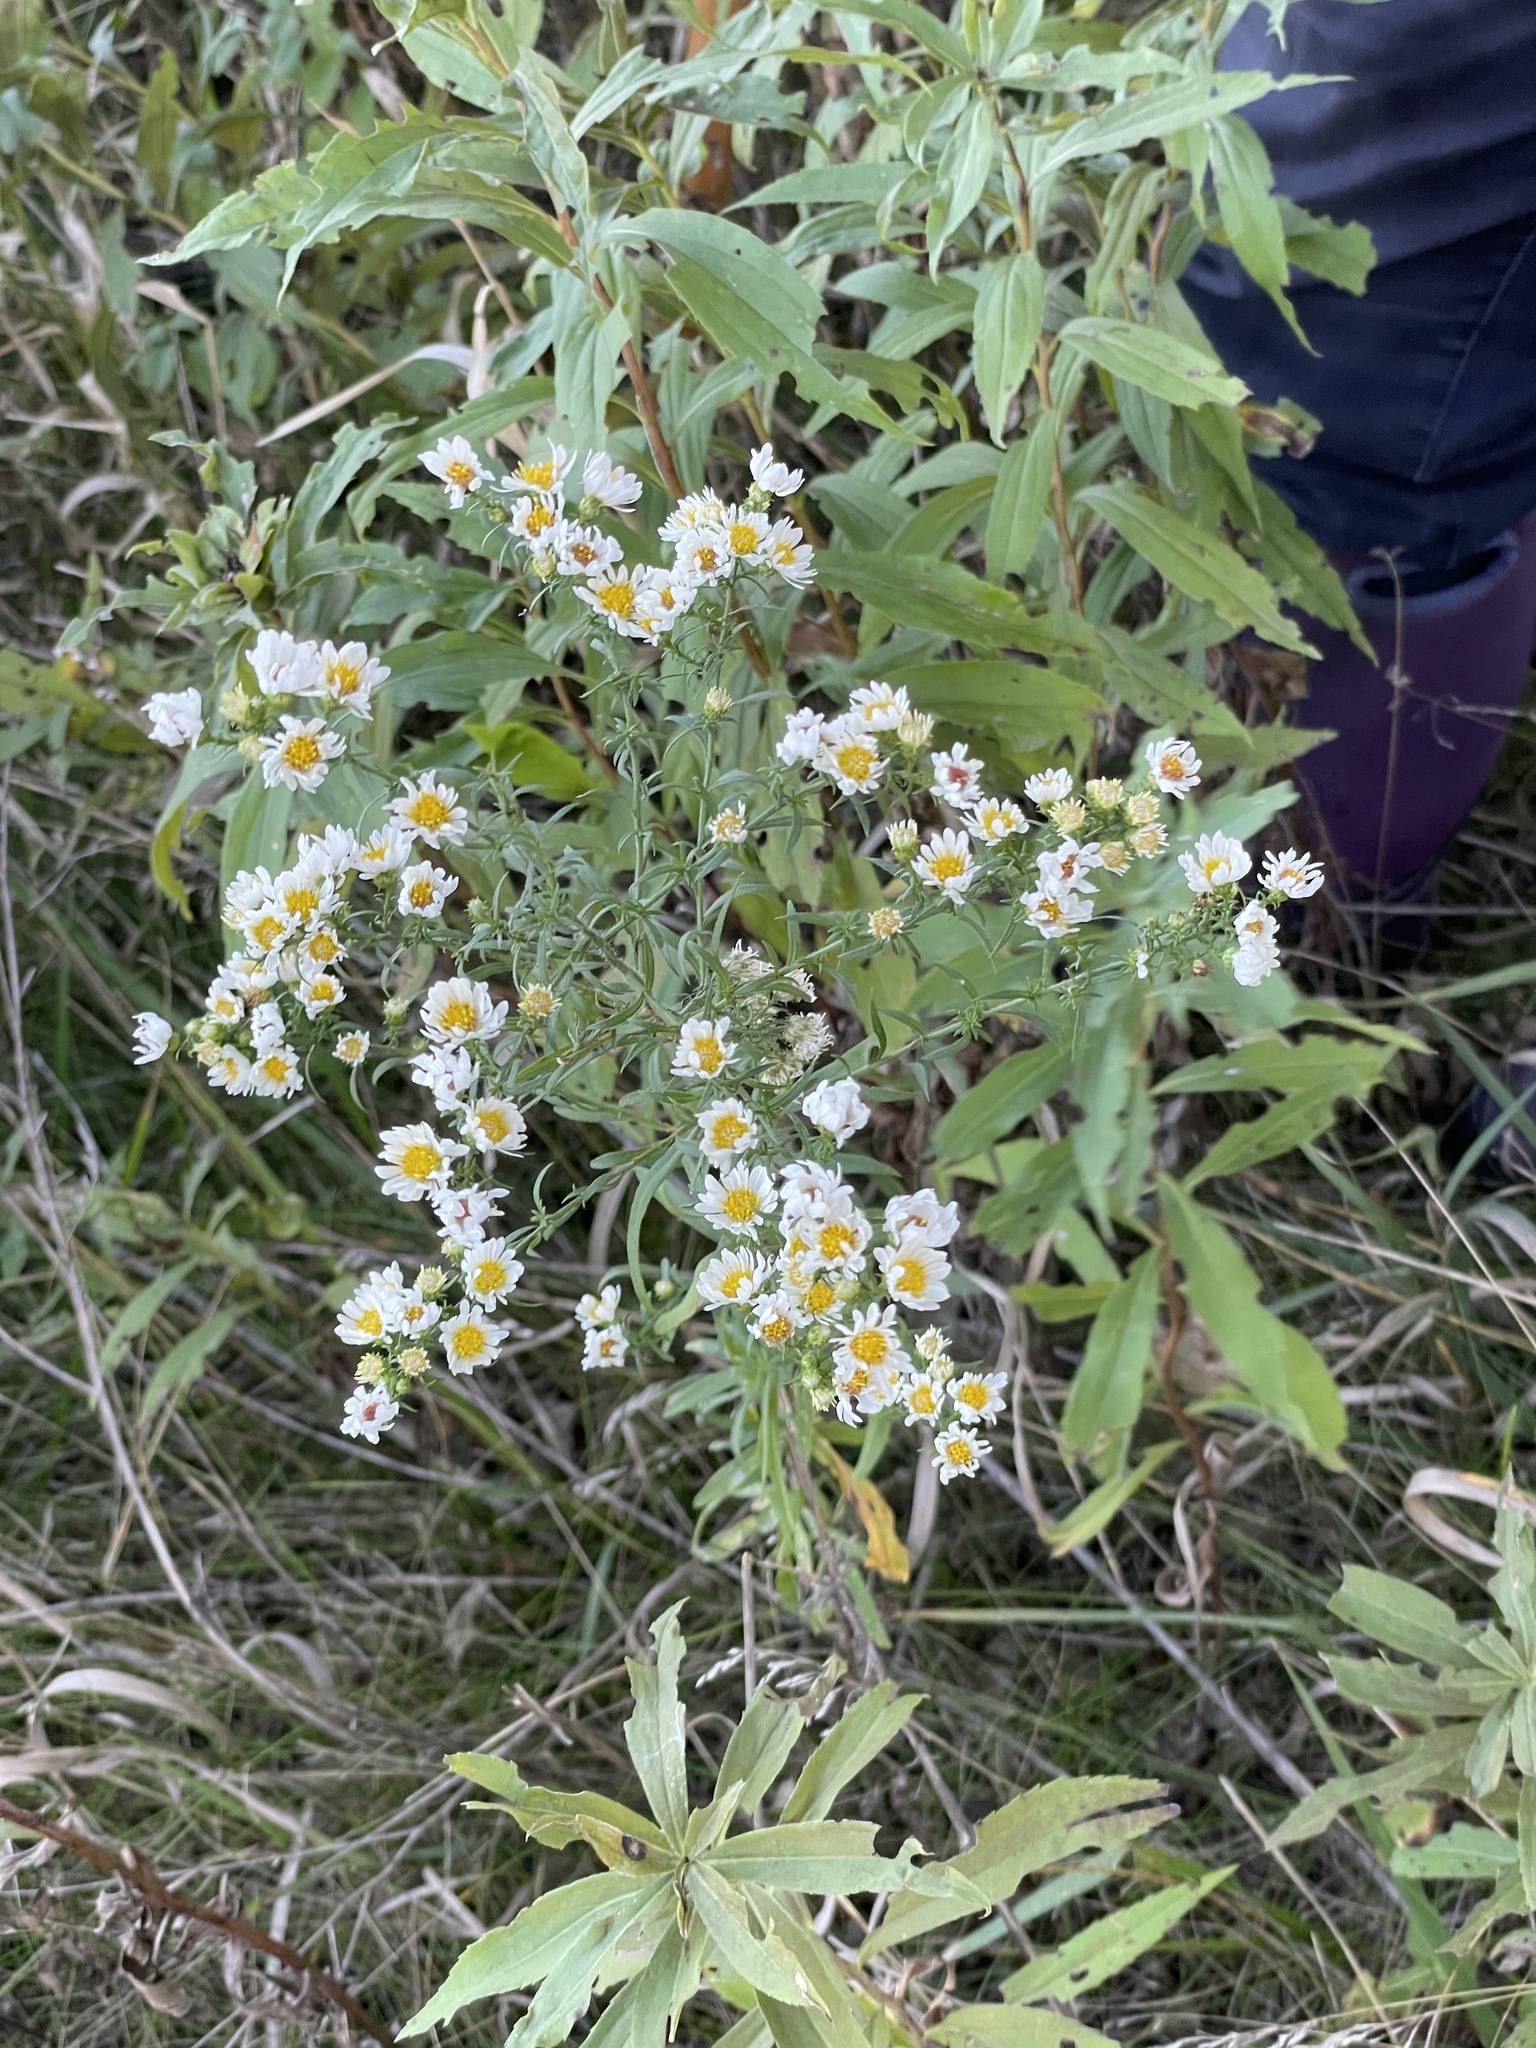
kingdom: Plantae
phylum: Tracheophyta
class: Magnoliopsida
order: Asterales
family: Asteraceae
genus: Symphyotrichum
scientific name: Symphyotrichum pilosum
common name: Awl aster
